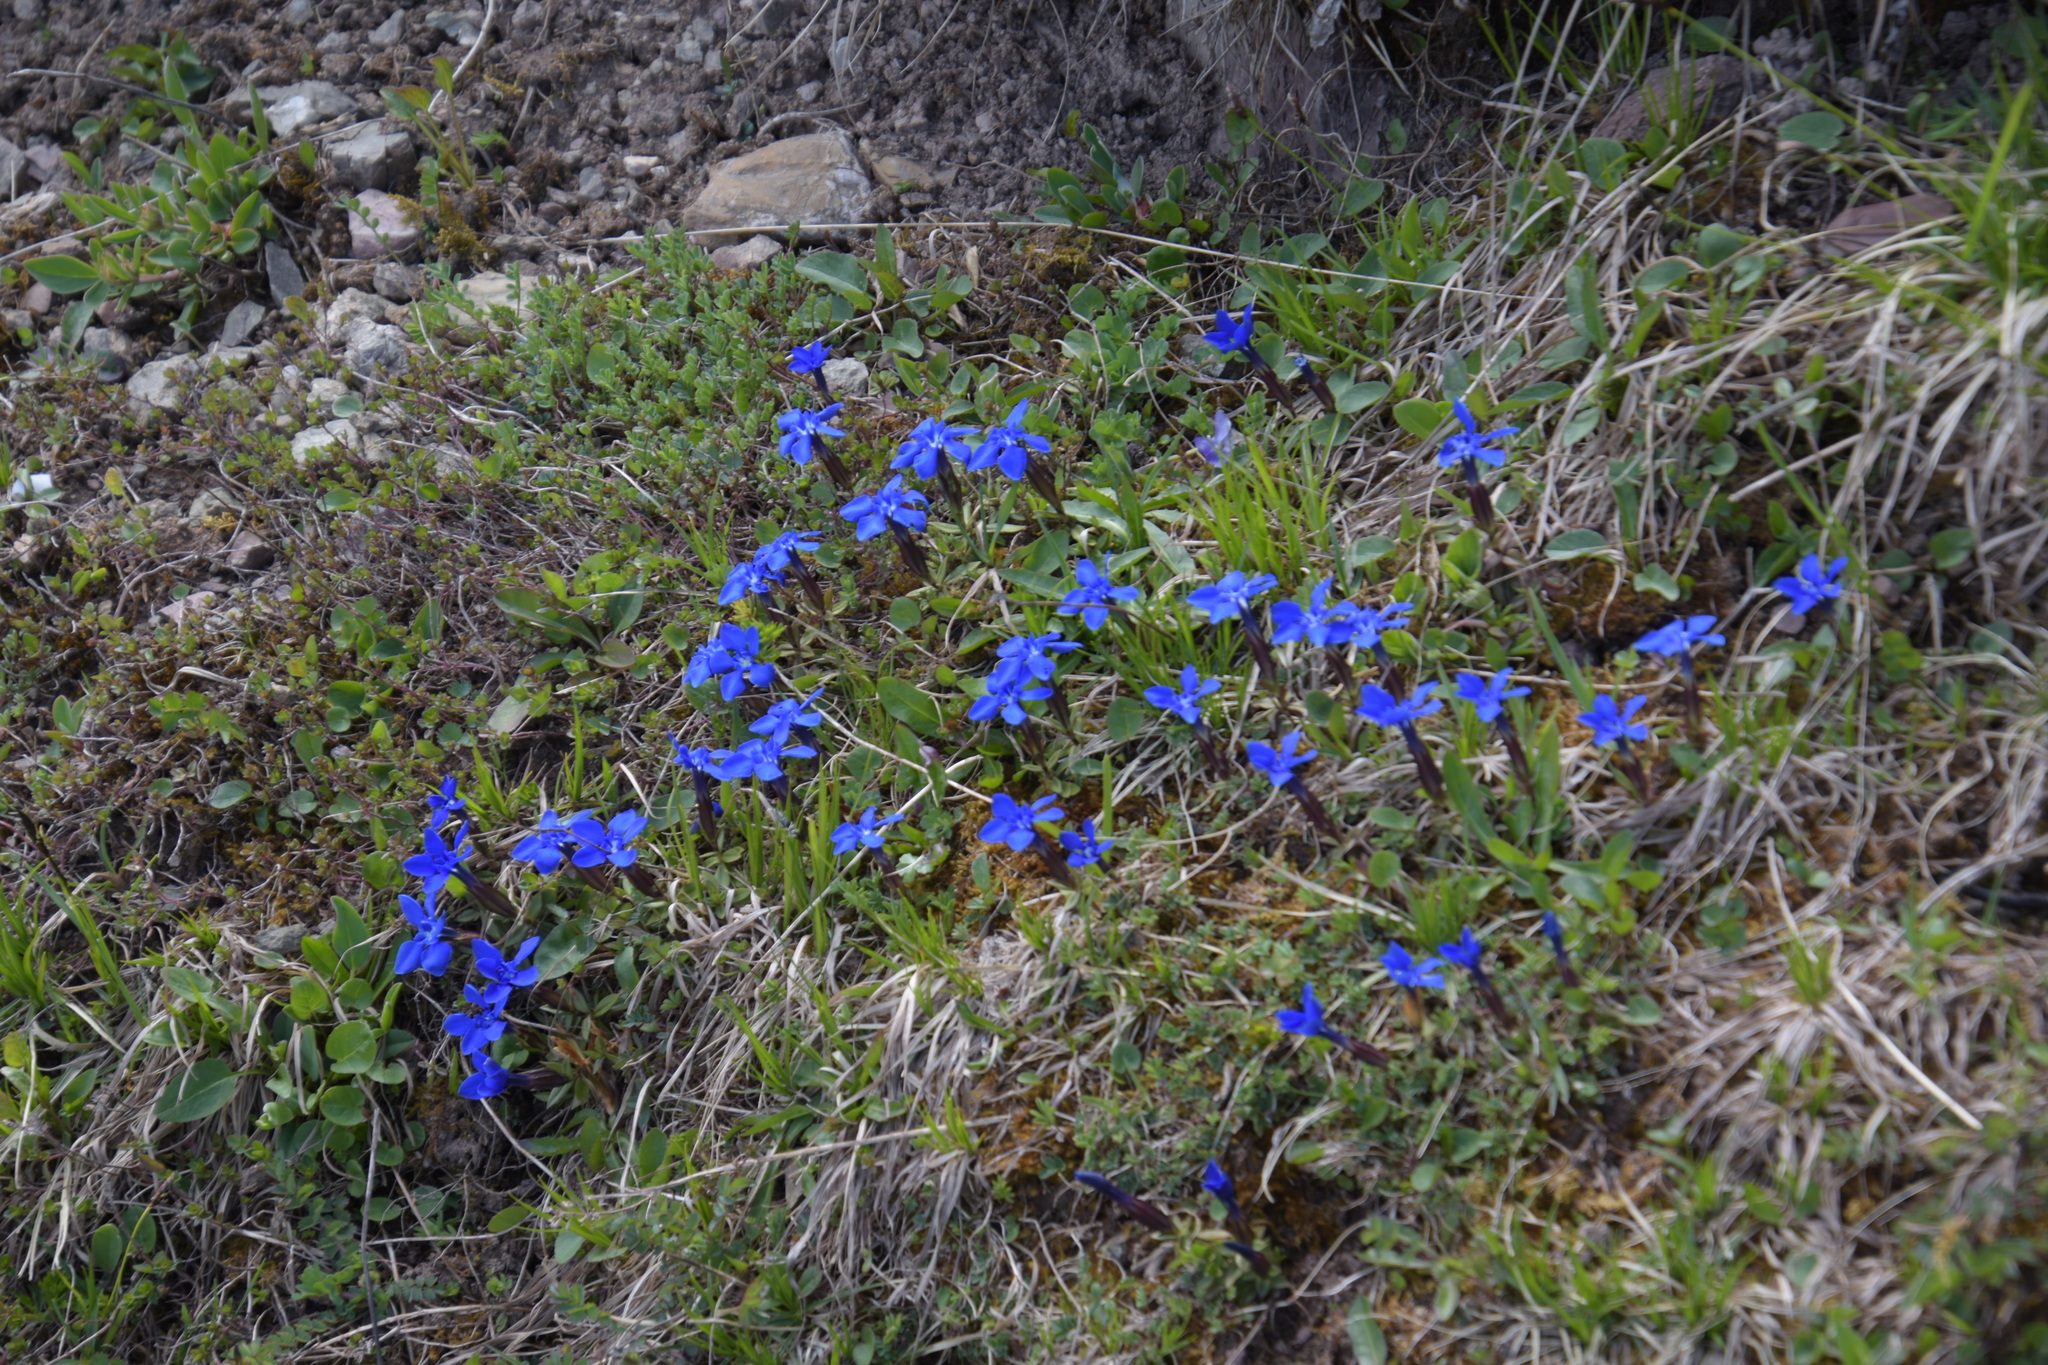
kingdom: Plantae
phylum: Tracheophyta
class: Magnoliopsida
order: Gentianales
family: Gentianaceae
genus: Gentiana
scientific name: Gentiana verna
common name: Spring gentian
